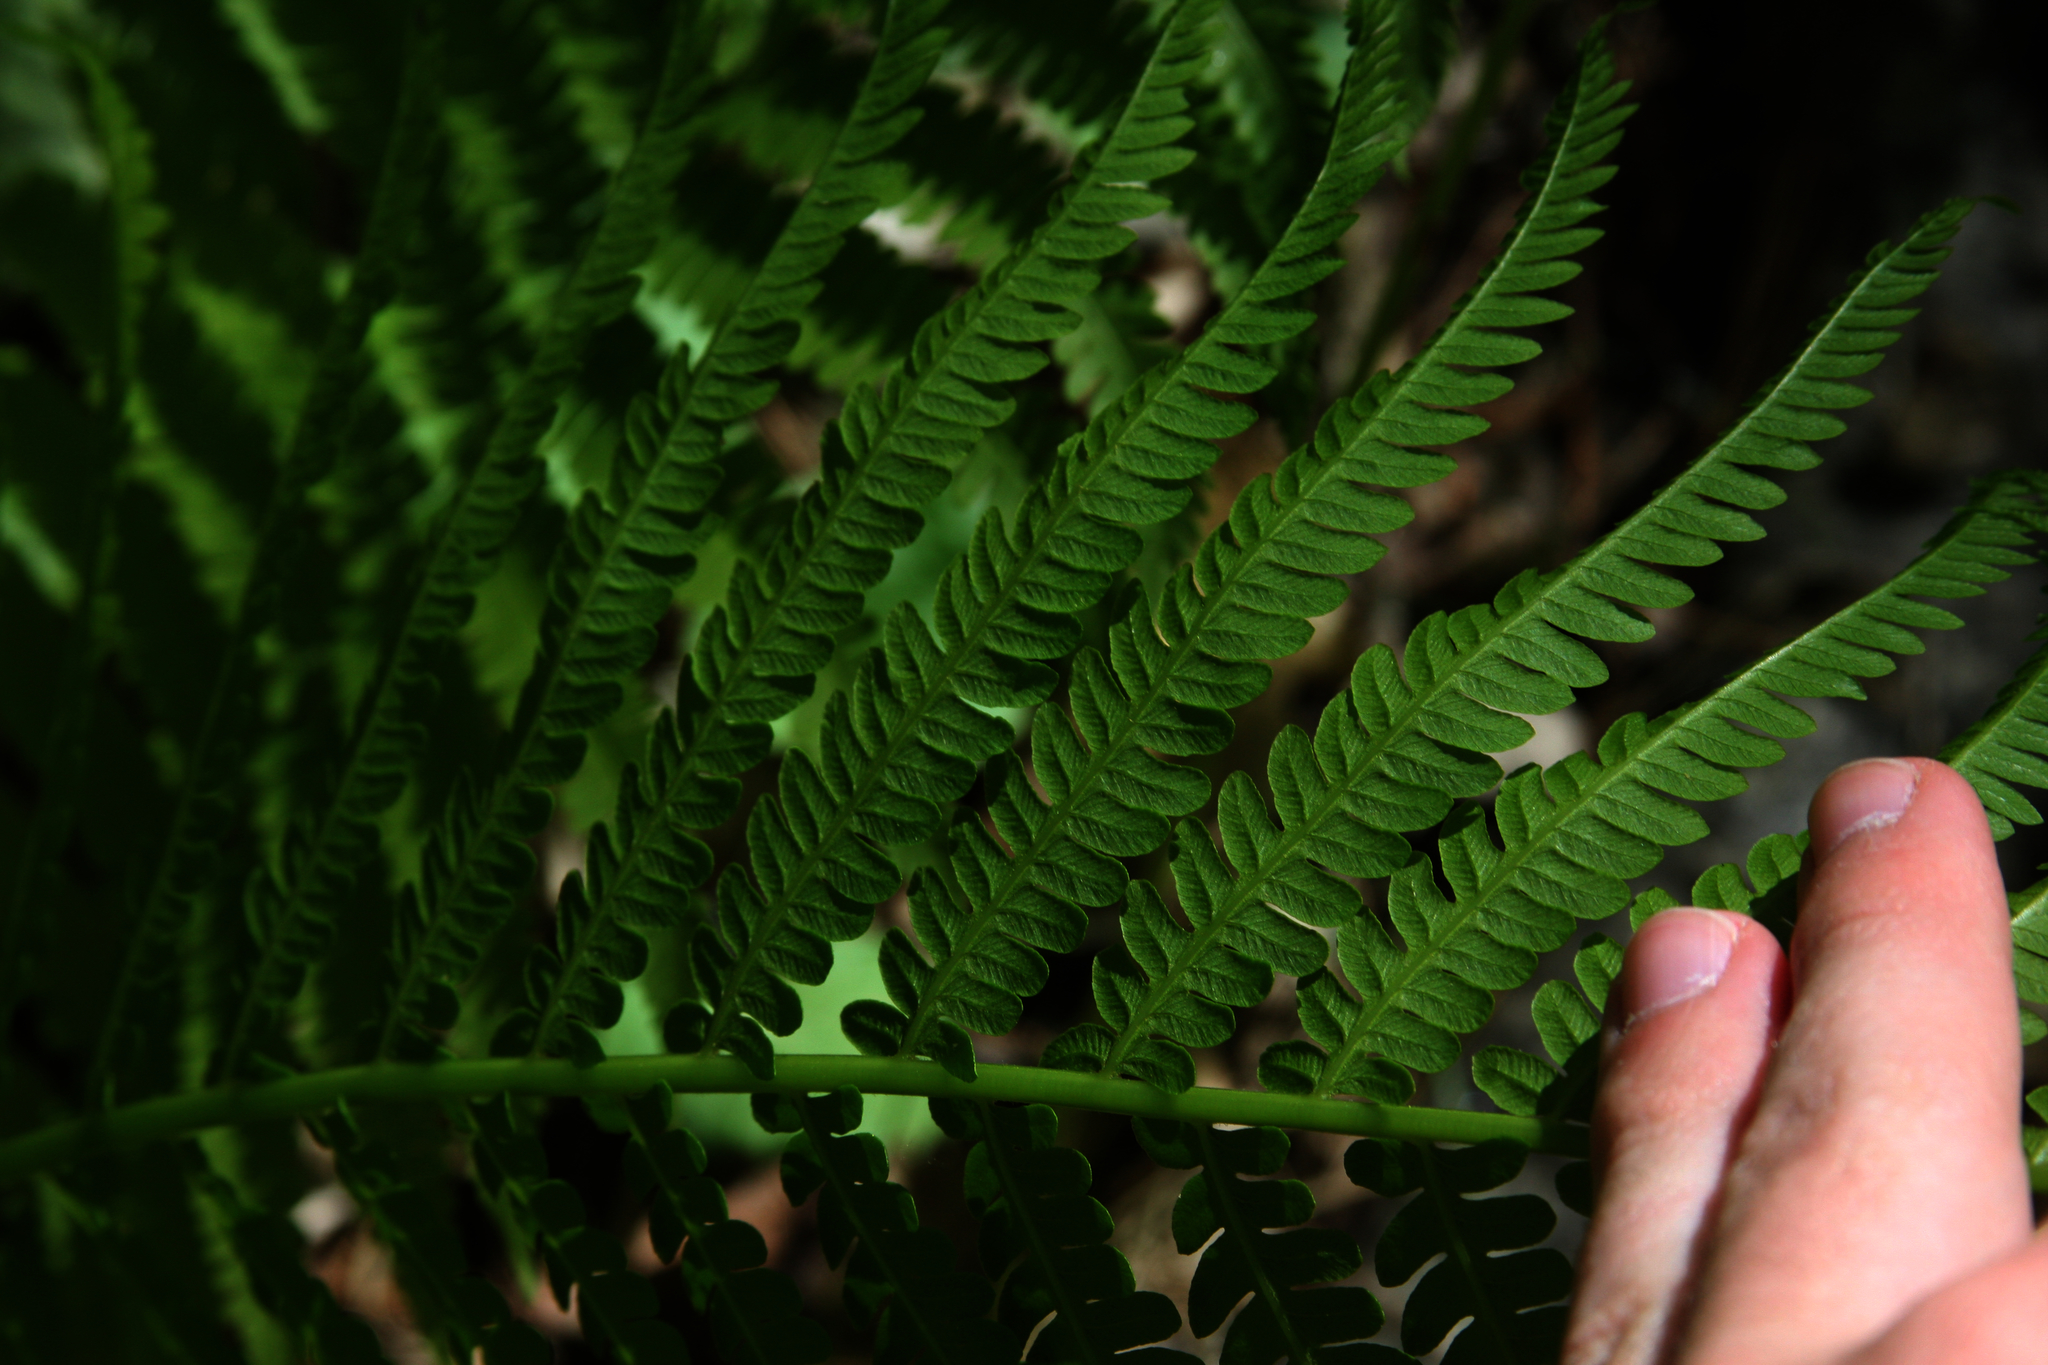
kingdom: Plantae
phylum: Tracheophyta
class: Polypodiopsida
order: Polypodiales
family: Onocleaceae
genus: Matteuccia
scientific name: Matteuccia struthiopteris
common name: Ostrich fern
